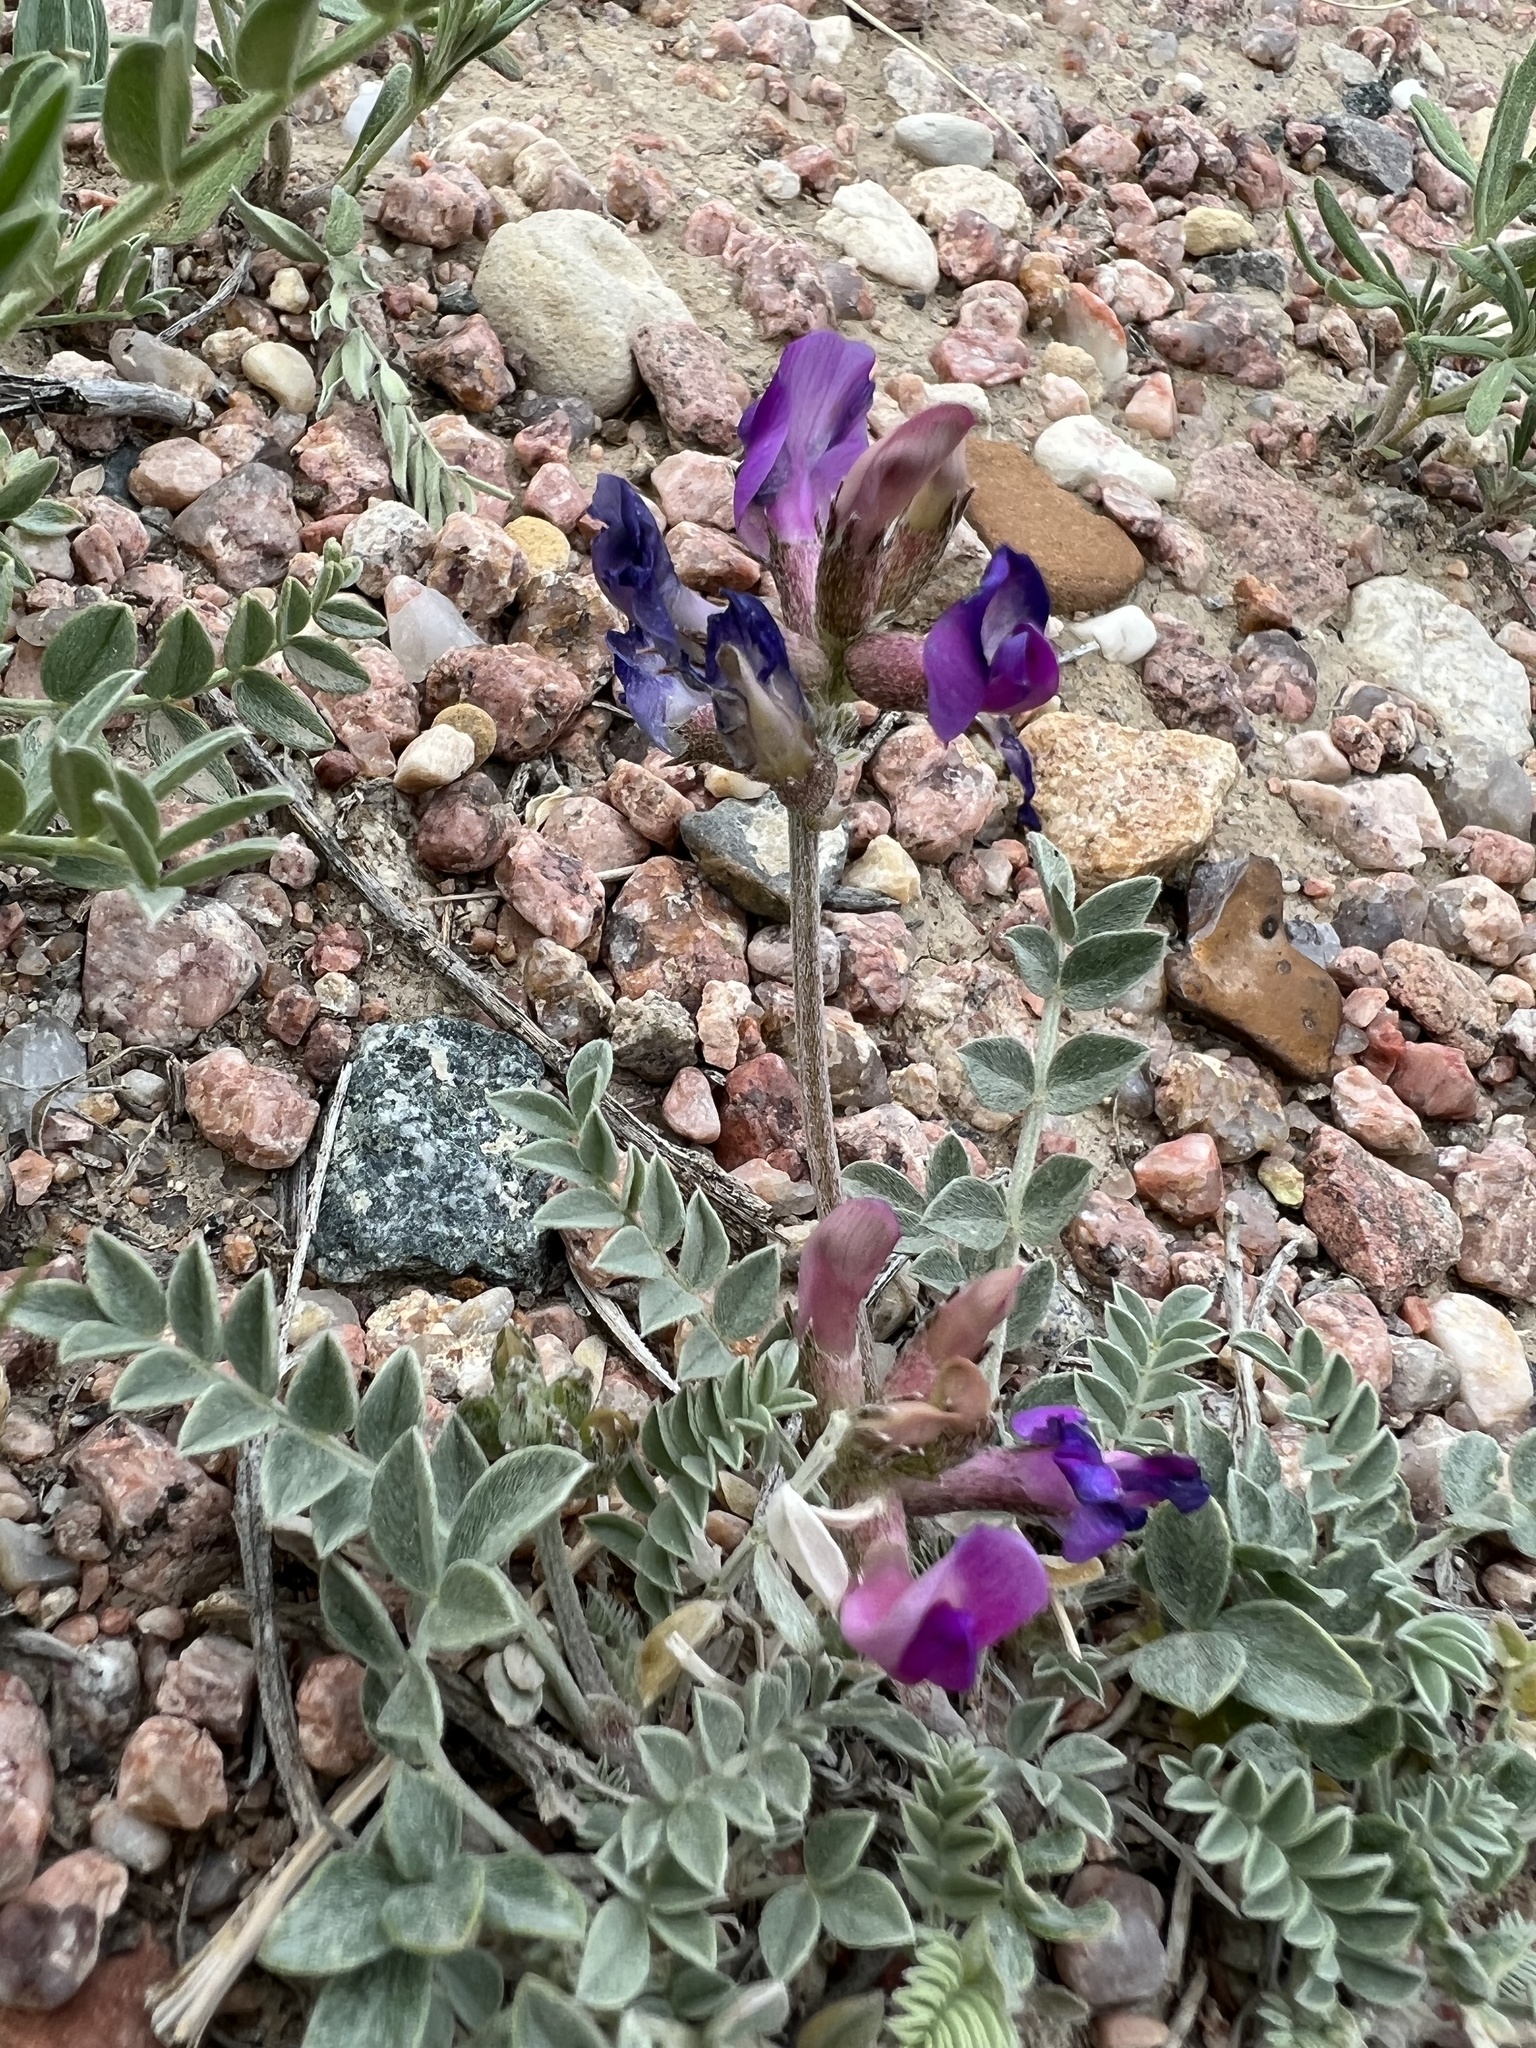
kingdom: Plantae
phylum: Tracheophyta
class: Magnoliopsida
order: Fabales
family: Fabaceae
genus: Astragalus
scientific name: Astragalus shortianus
